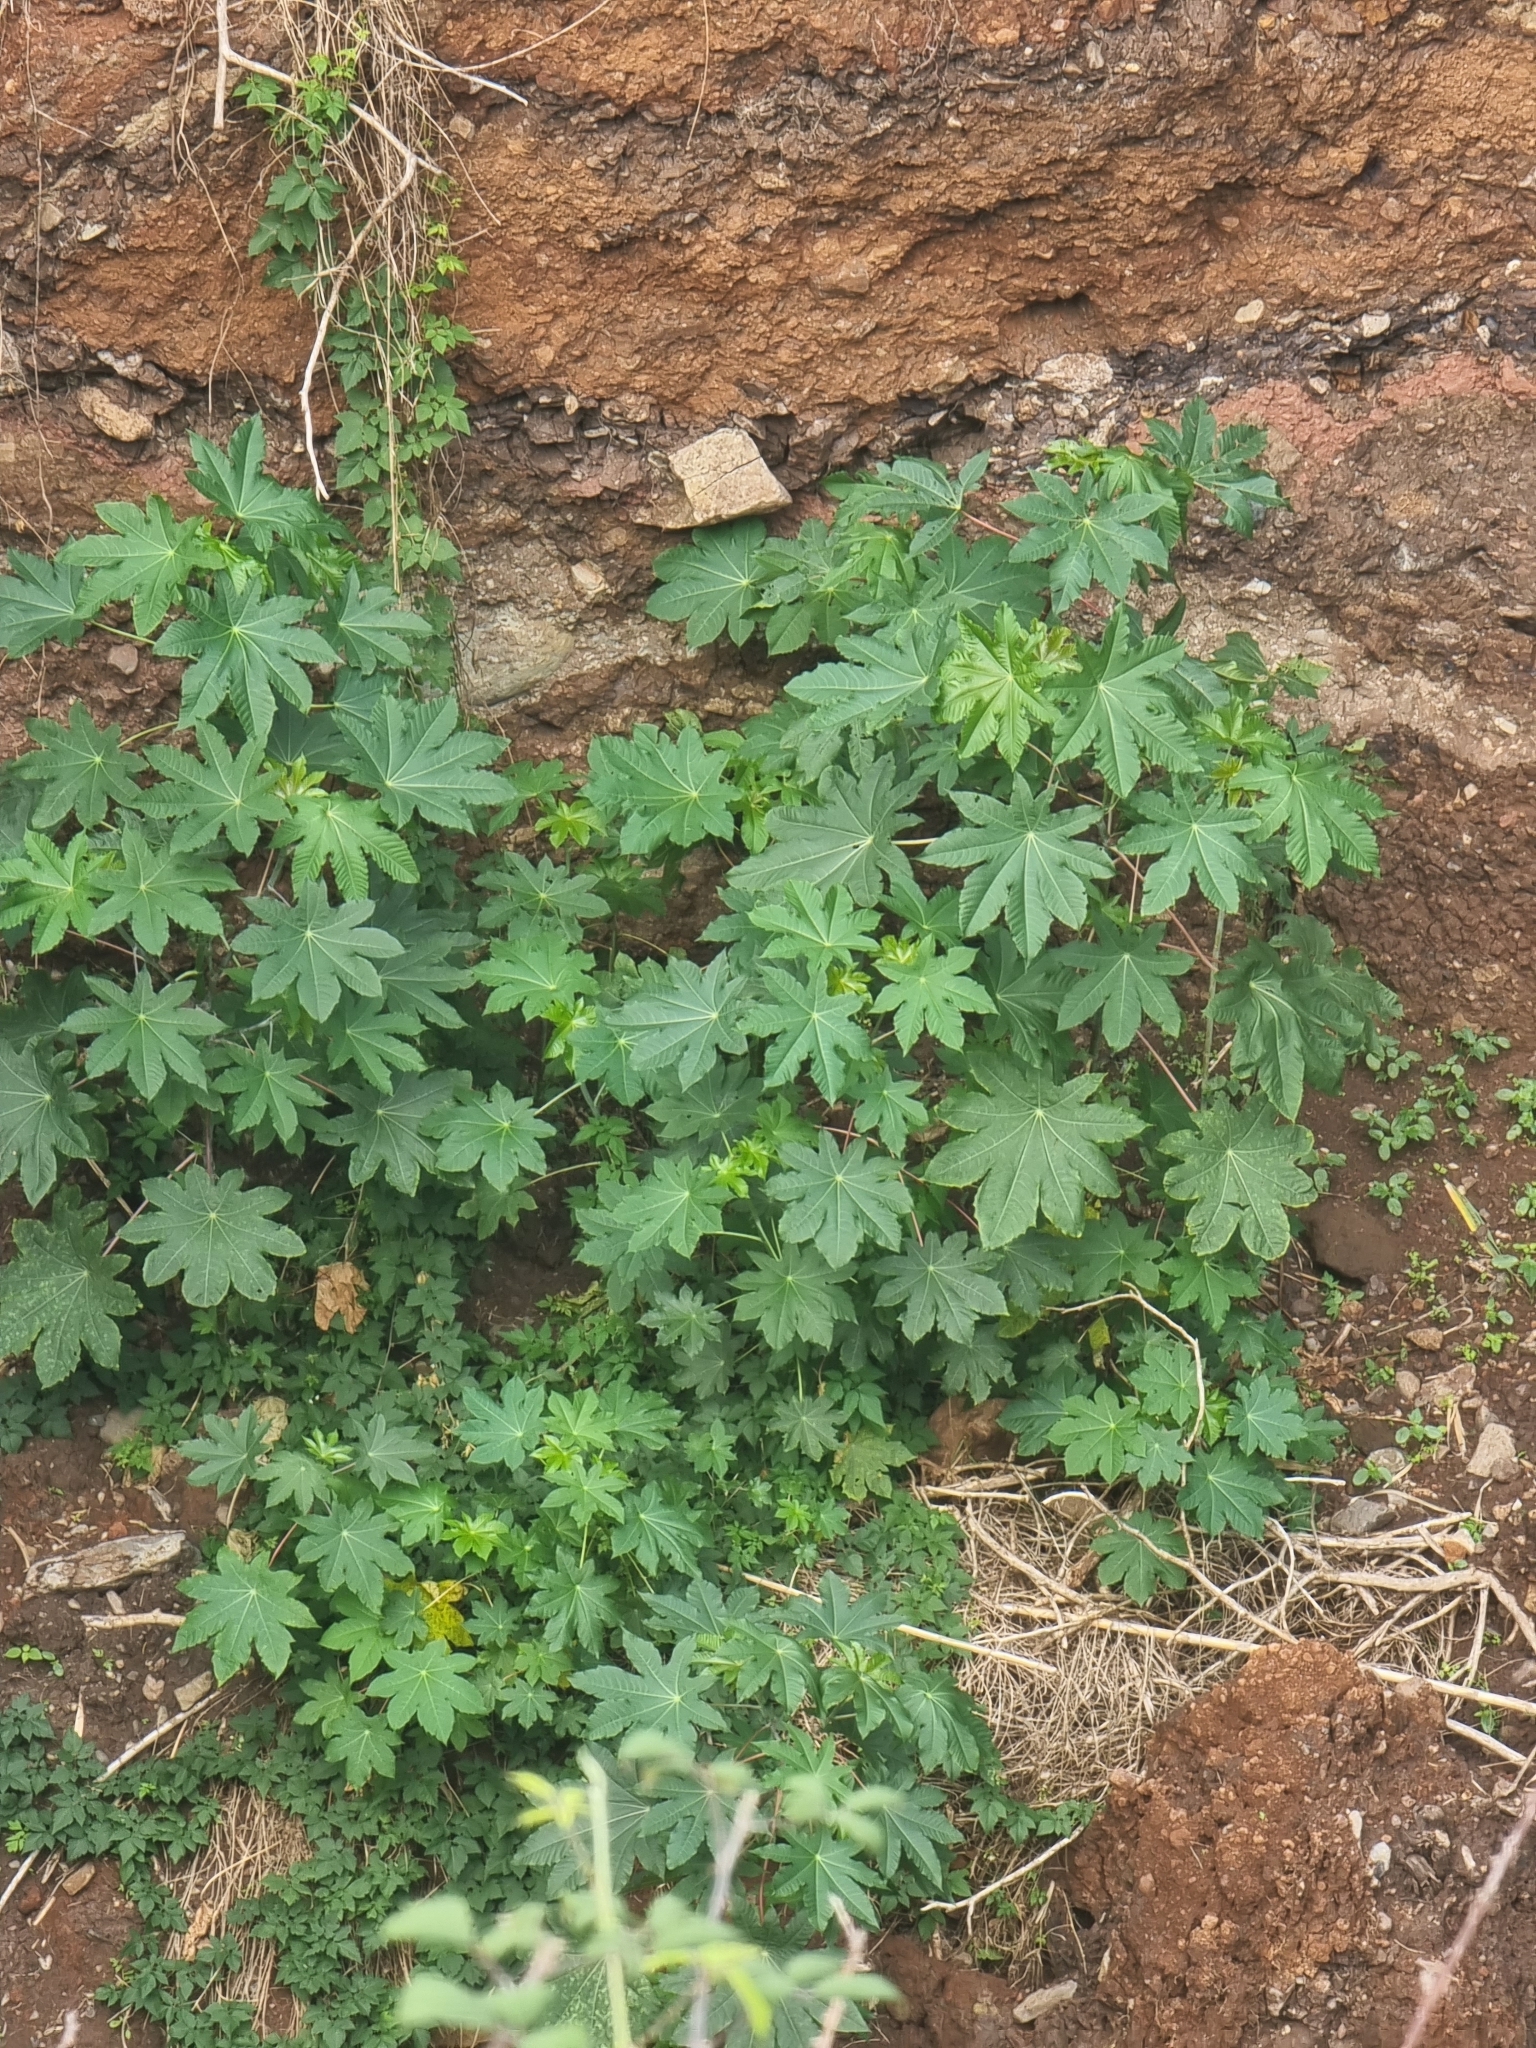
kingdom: Plantae
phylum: Tracheophyta
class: Magnoliopsida
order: Malpighiales
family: Euphorbiaceae
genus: Ricinus
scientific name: Ricinus communis
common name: Castor-oil-plant
